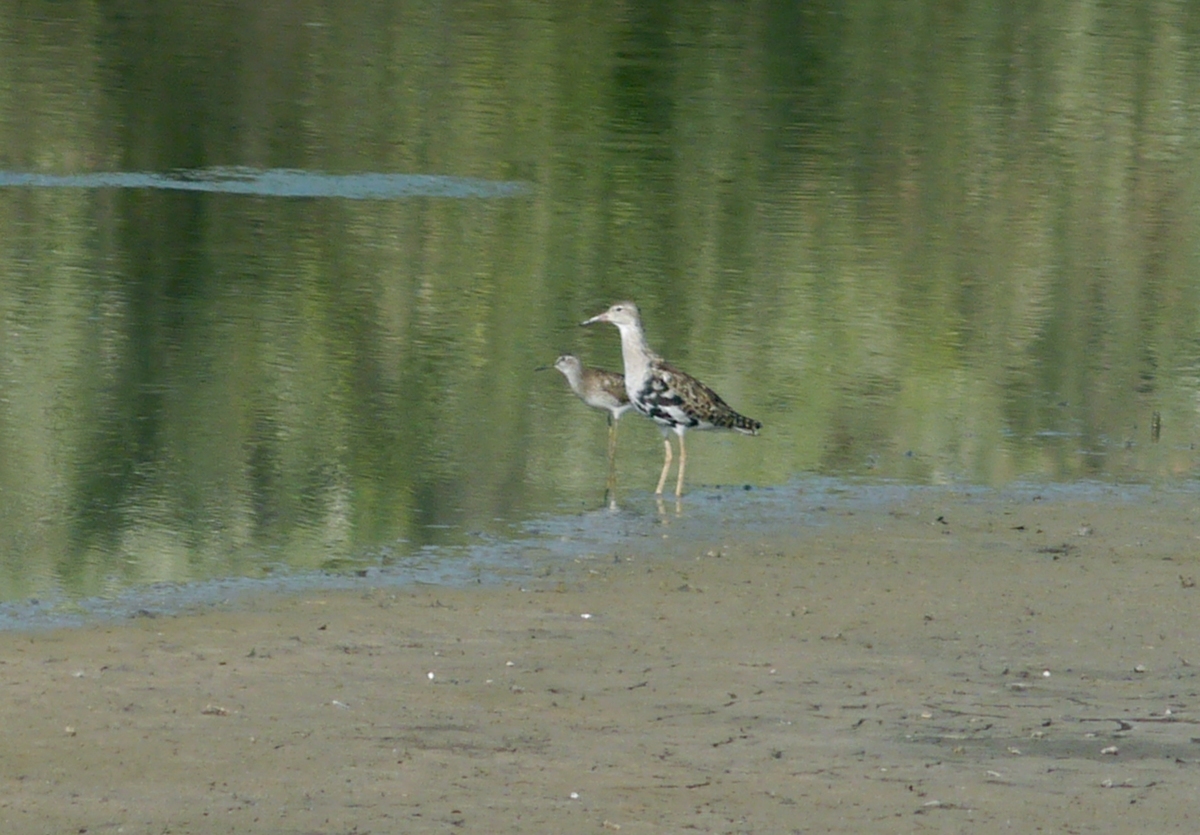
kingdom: Animalia
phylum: Chordata
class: Aves
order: Charadriiformes
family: Scolopacidae
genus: Calidris
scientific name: Calidris pugnax
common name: Ruff
